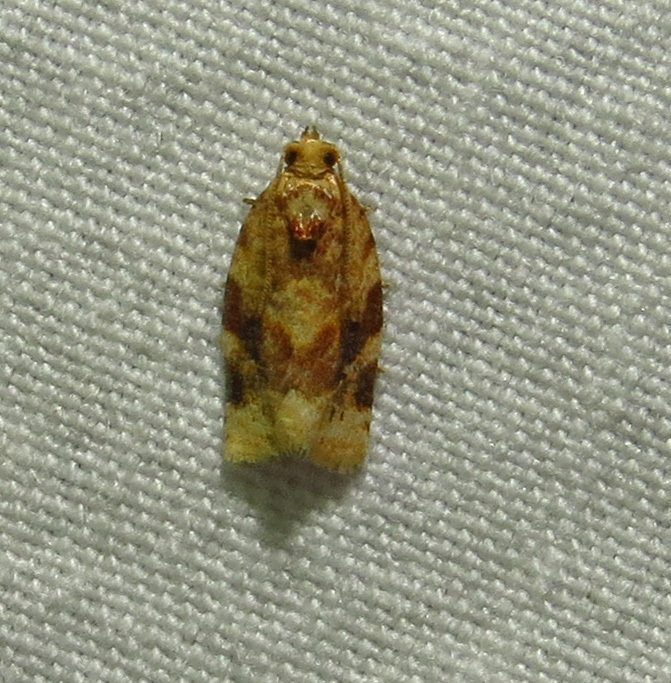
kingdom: Animalia
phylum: Arthropoda
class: Insecta
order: Lepidoptera
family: Tortricidae
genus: Argyrotaenia
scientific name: Argyrotaenia velutinana
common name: Red-banded leafroller moth
